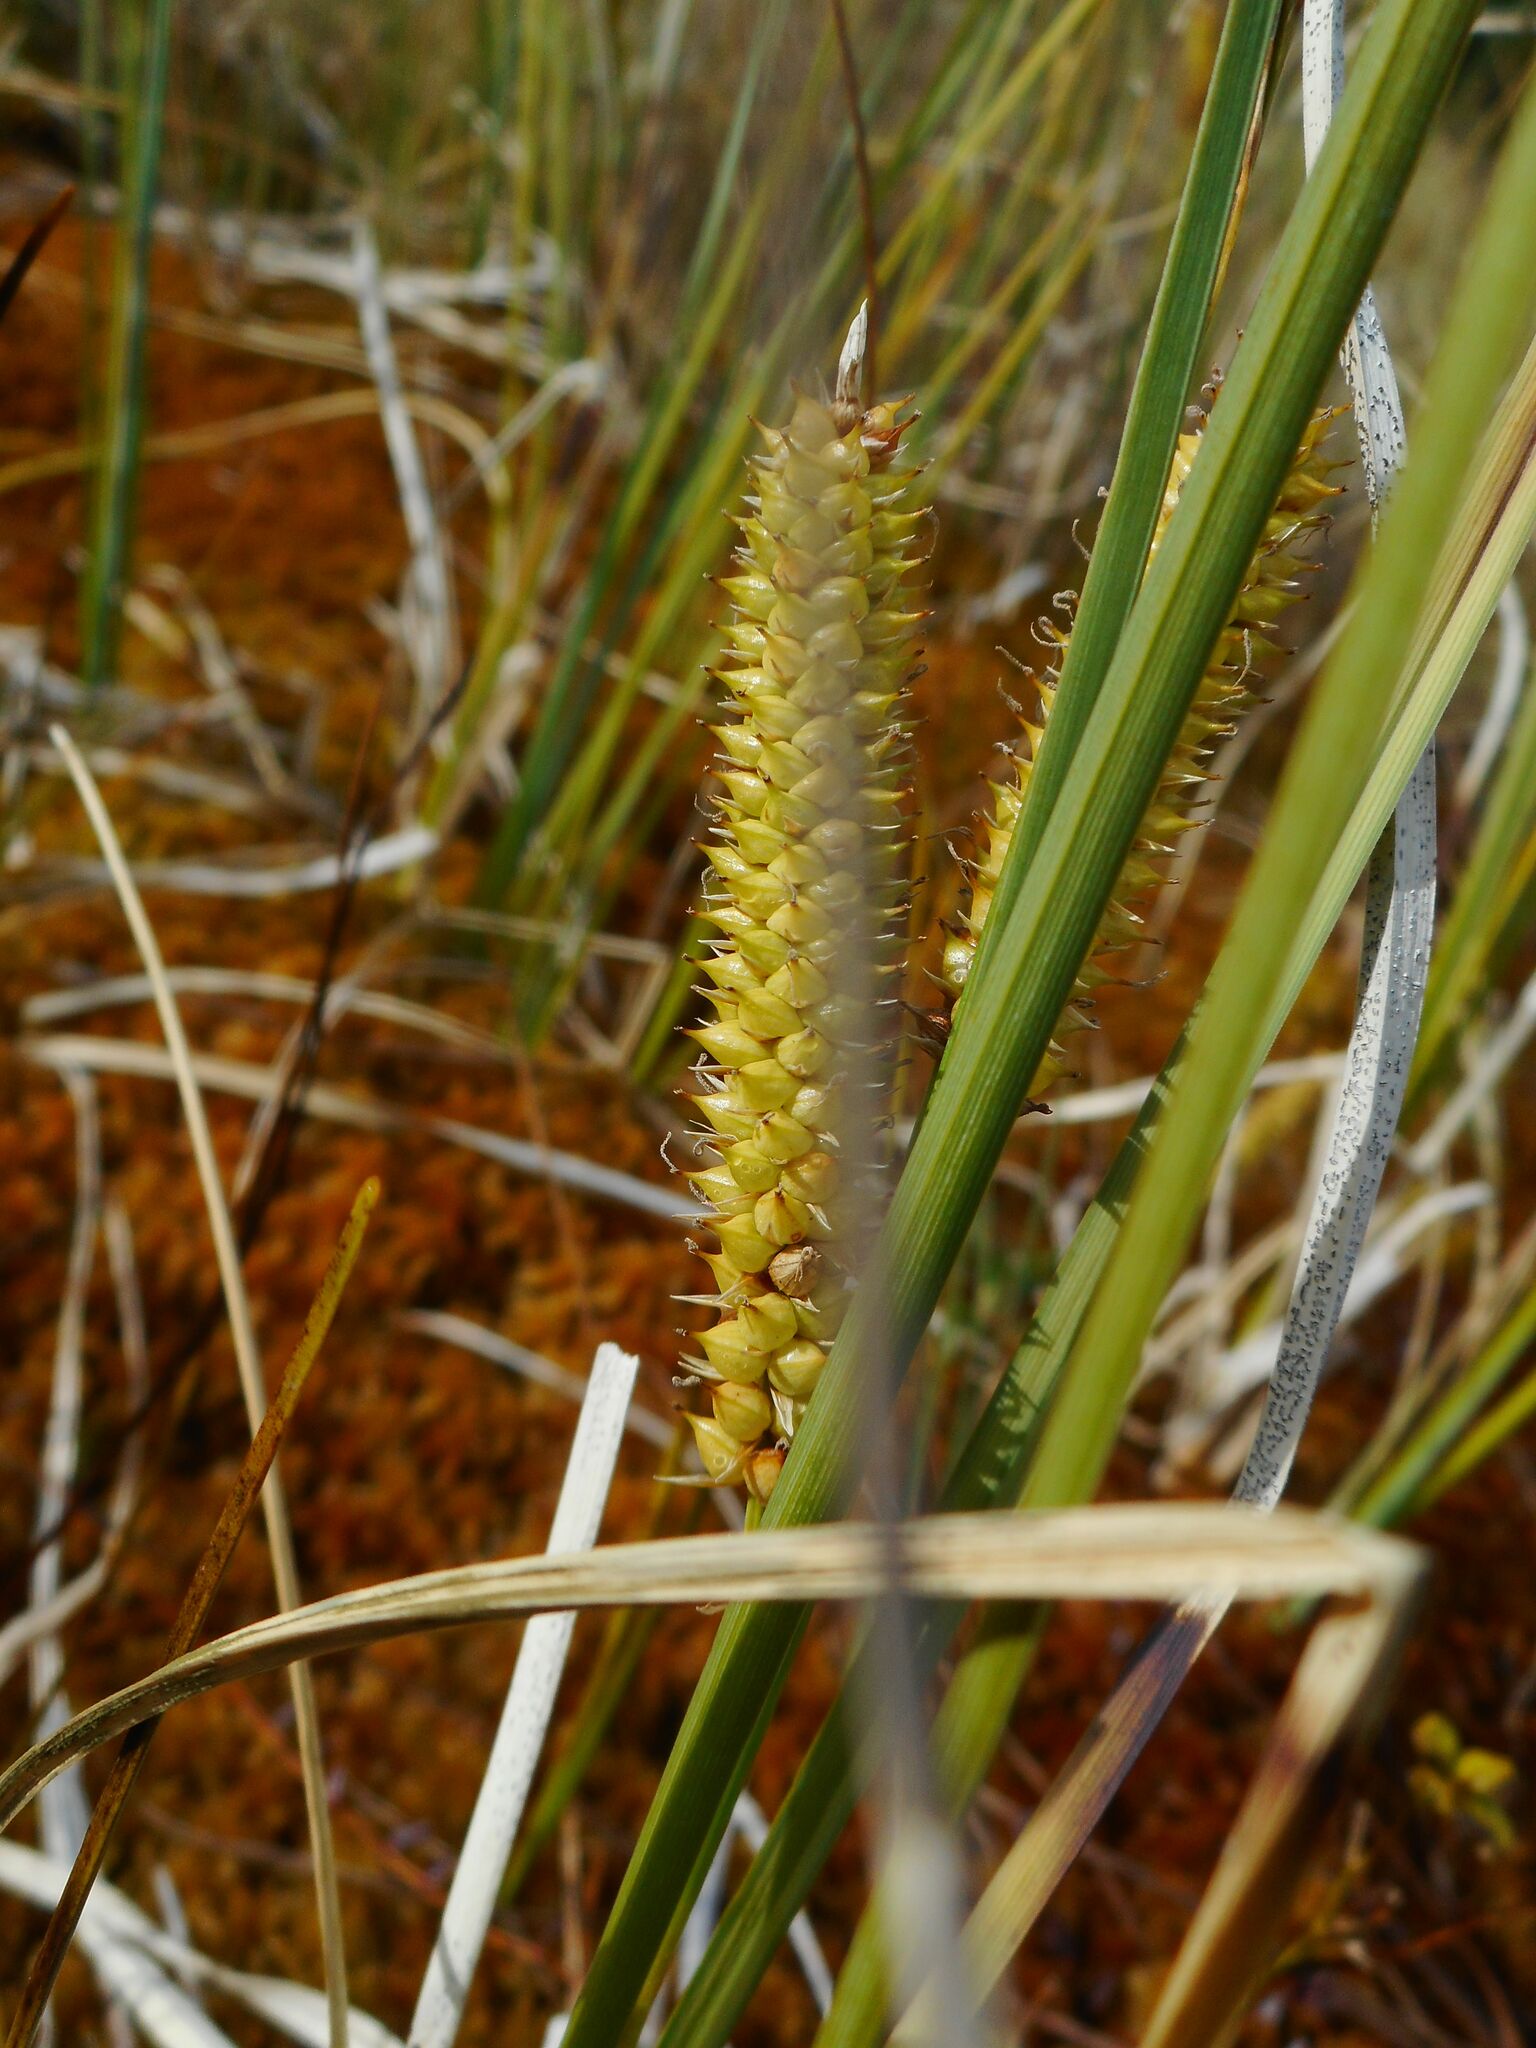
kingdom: Plantae
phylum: Tracheophyta
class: Liliopsida
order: Poales
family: Cyperaceae
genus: Carex
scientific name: Carex rostrata
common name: Bottle sedge
